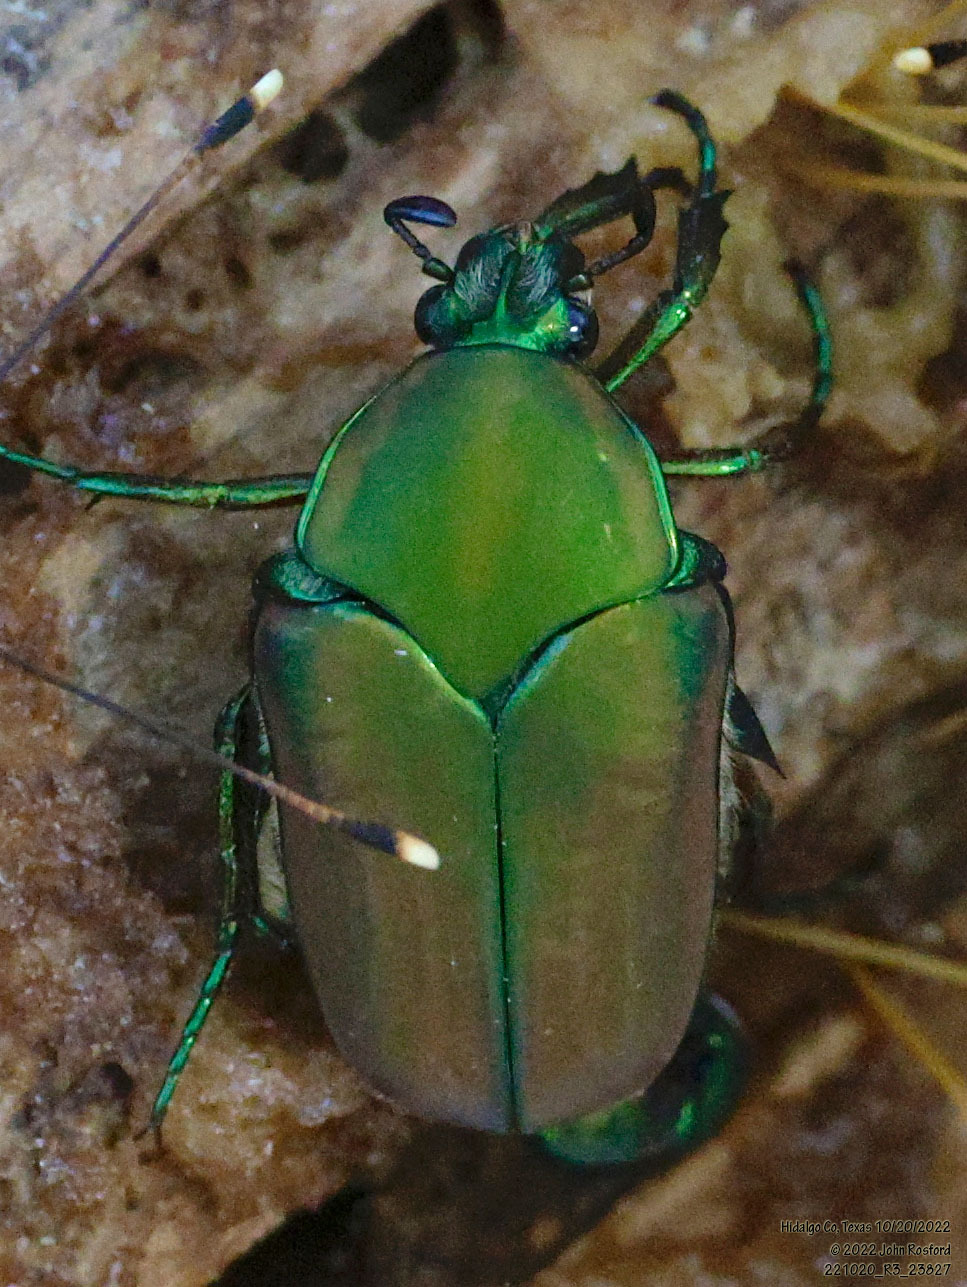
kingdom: Animalia
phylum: Arthropoda
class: Insecta
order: Coleoptera
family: Scarabaeidae
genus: Cotinis
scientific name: Cotinis mutabilis
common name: Figeater beetle
